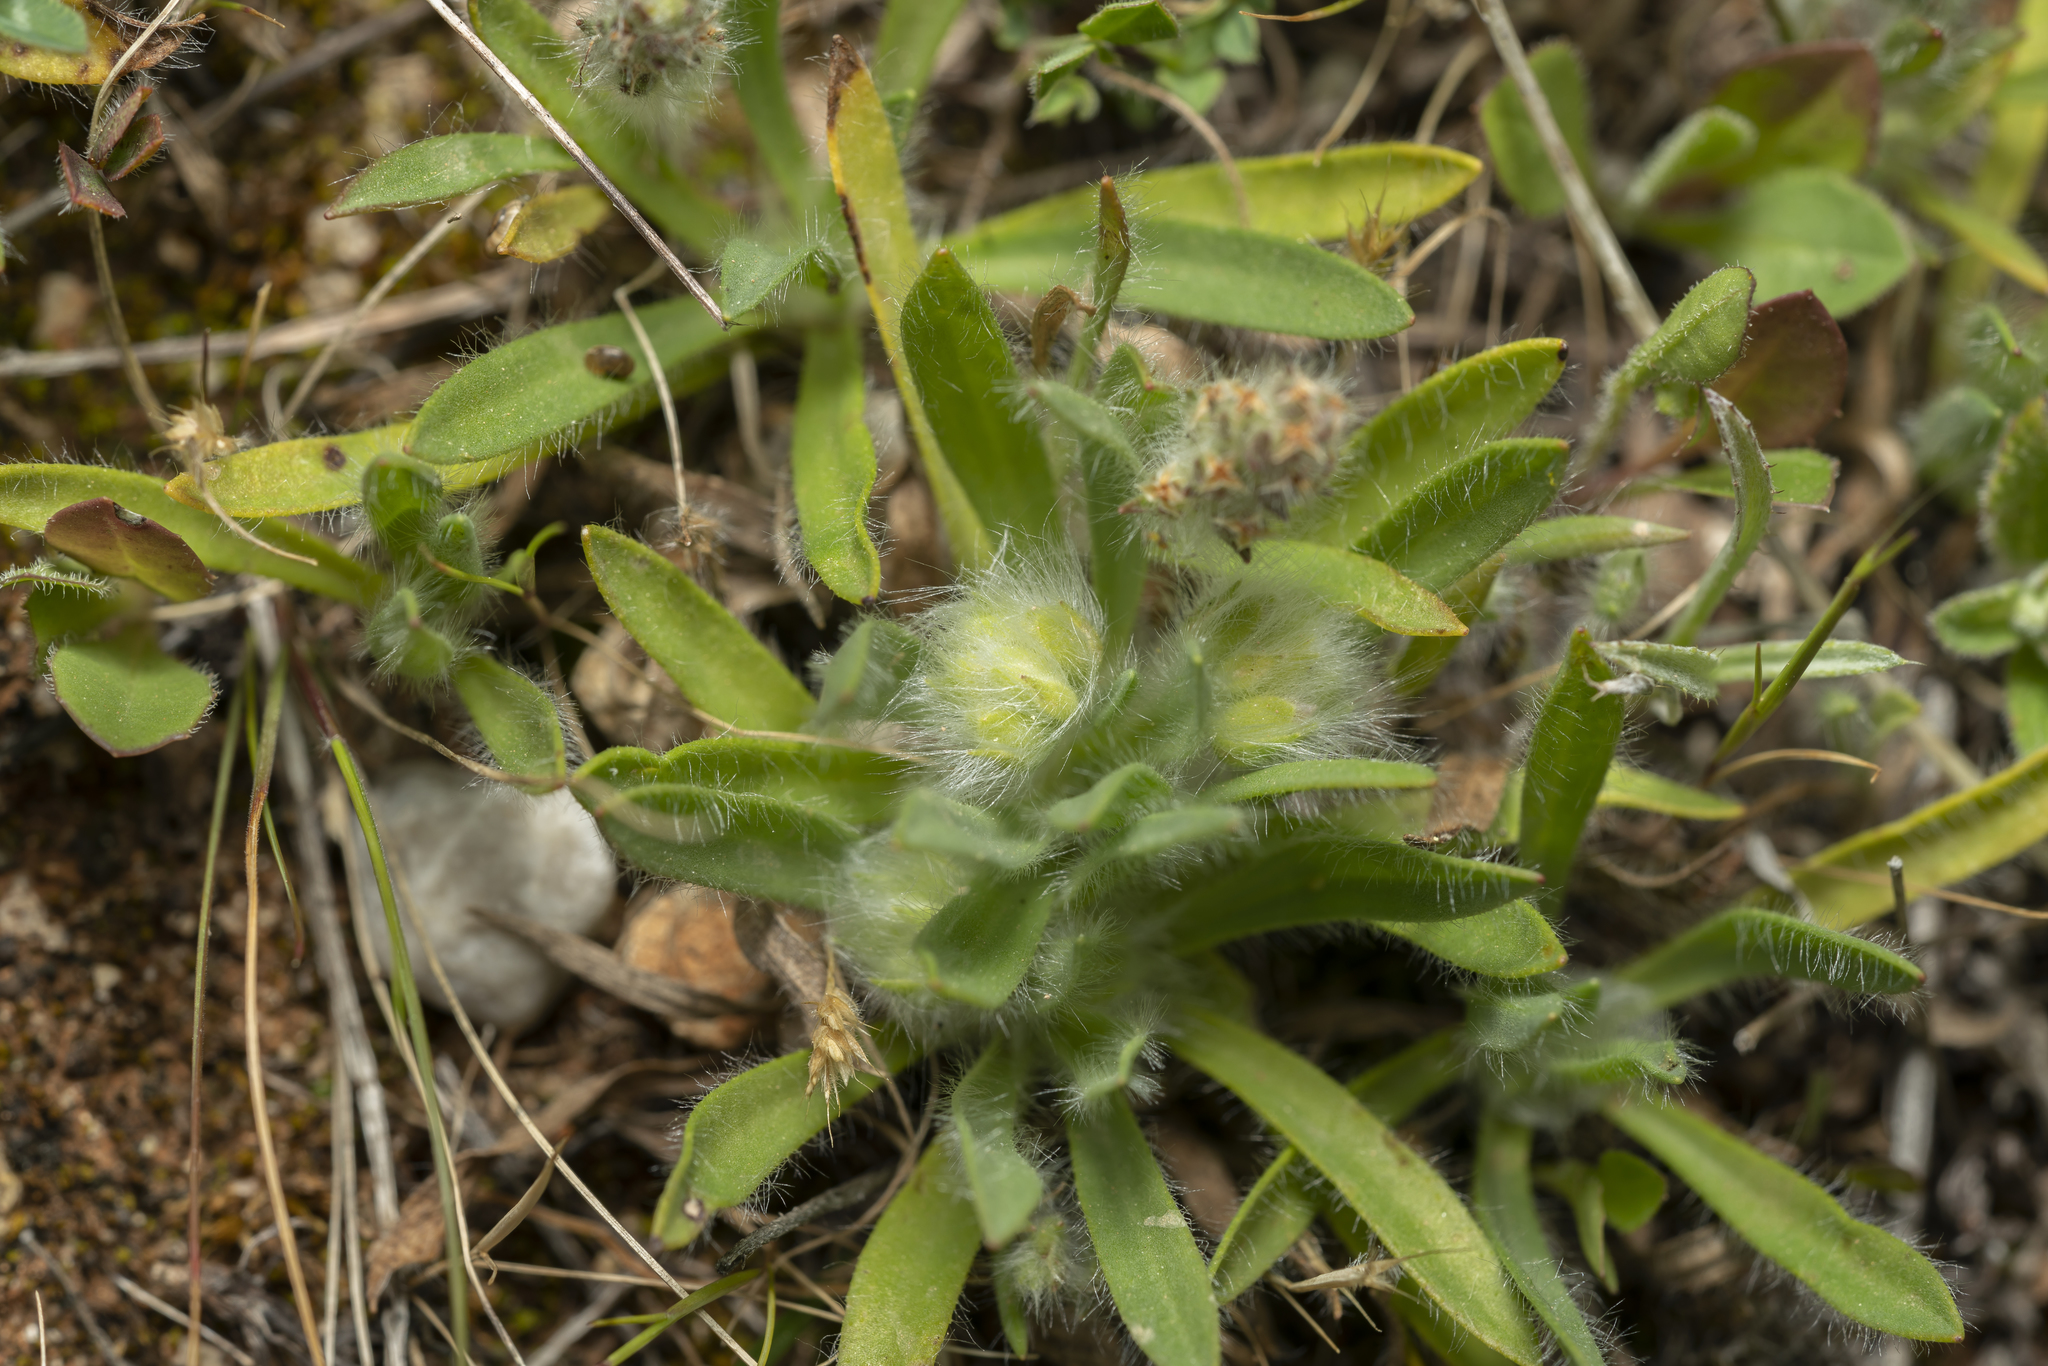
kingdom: Plantae
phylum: Tracheophyta
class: Magnoliopsida
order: Lamiales
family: Plantaginaceae
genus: Plantago
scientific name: Plantago cretica
